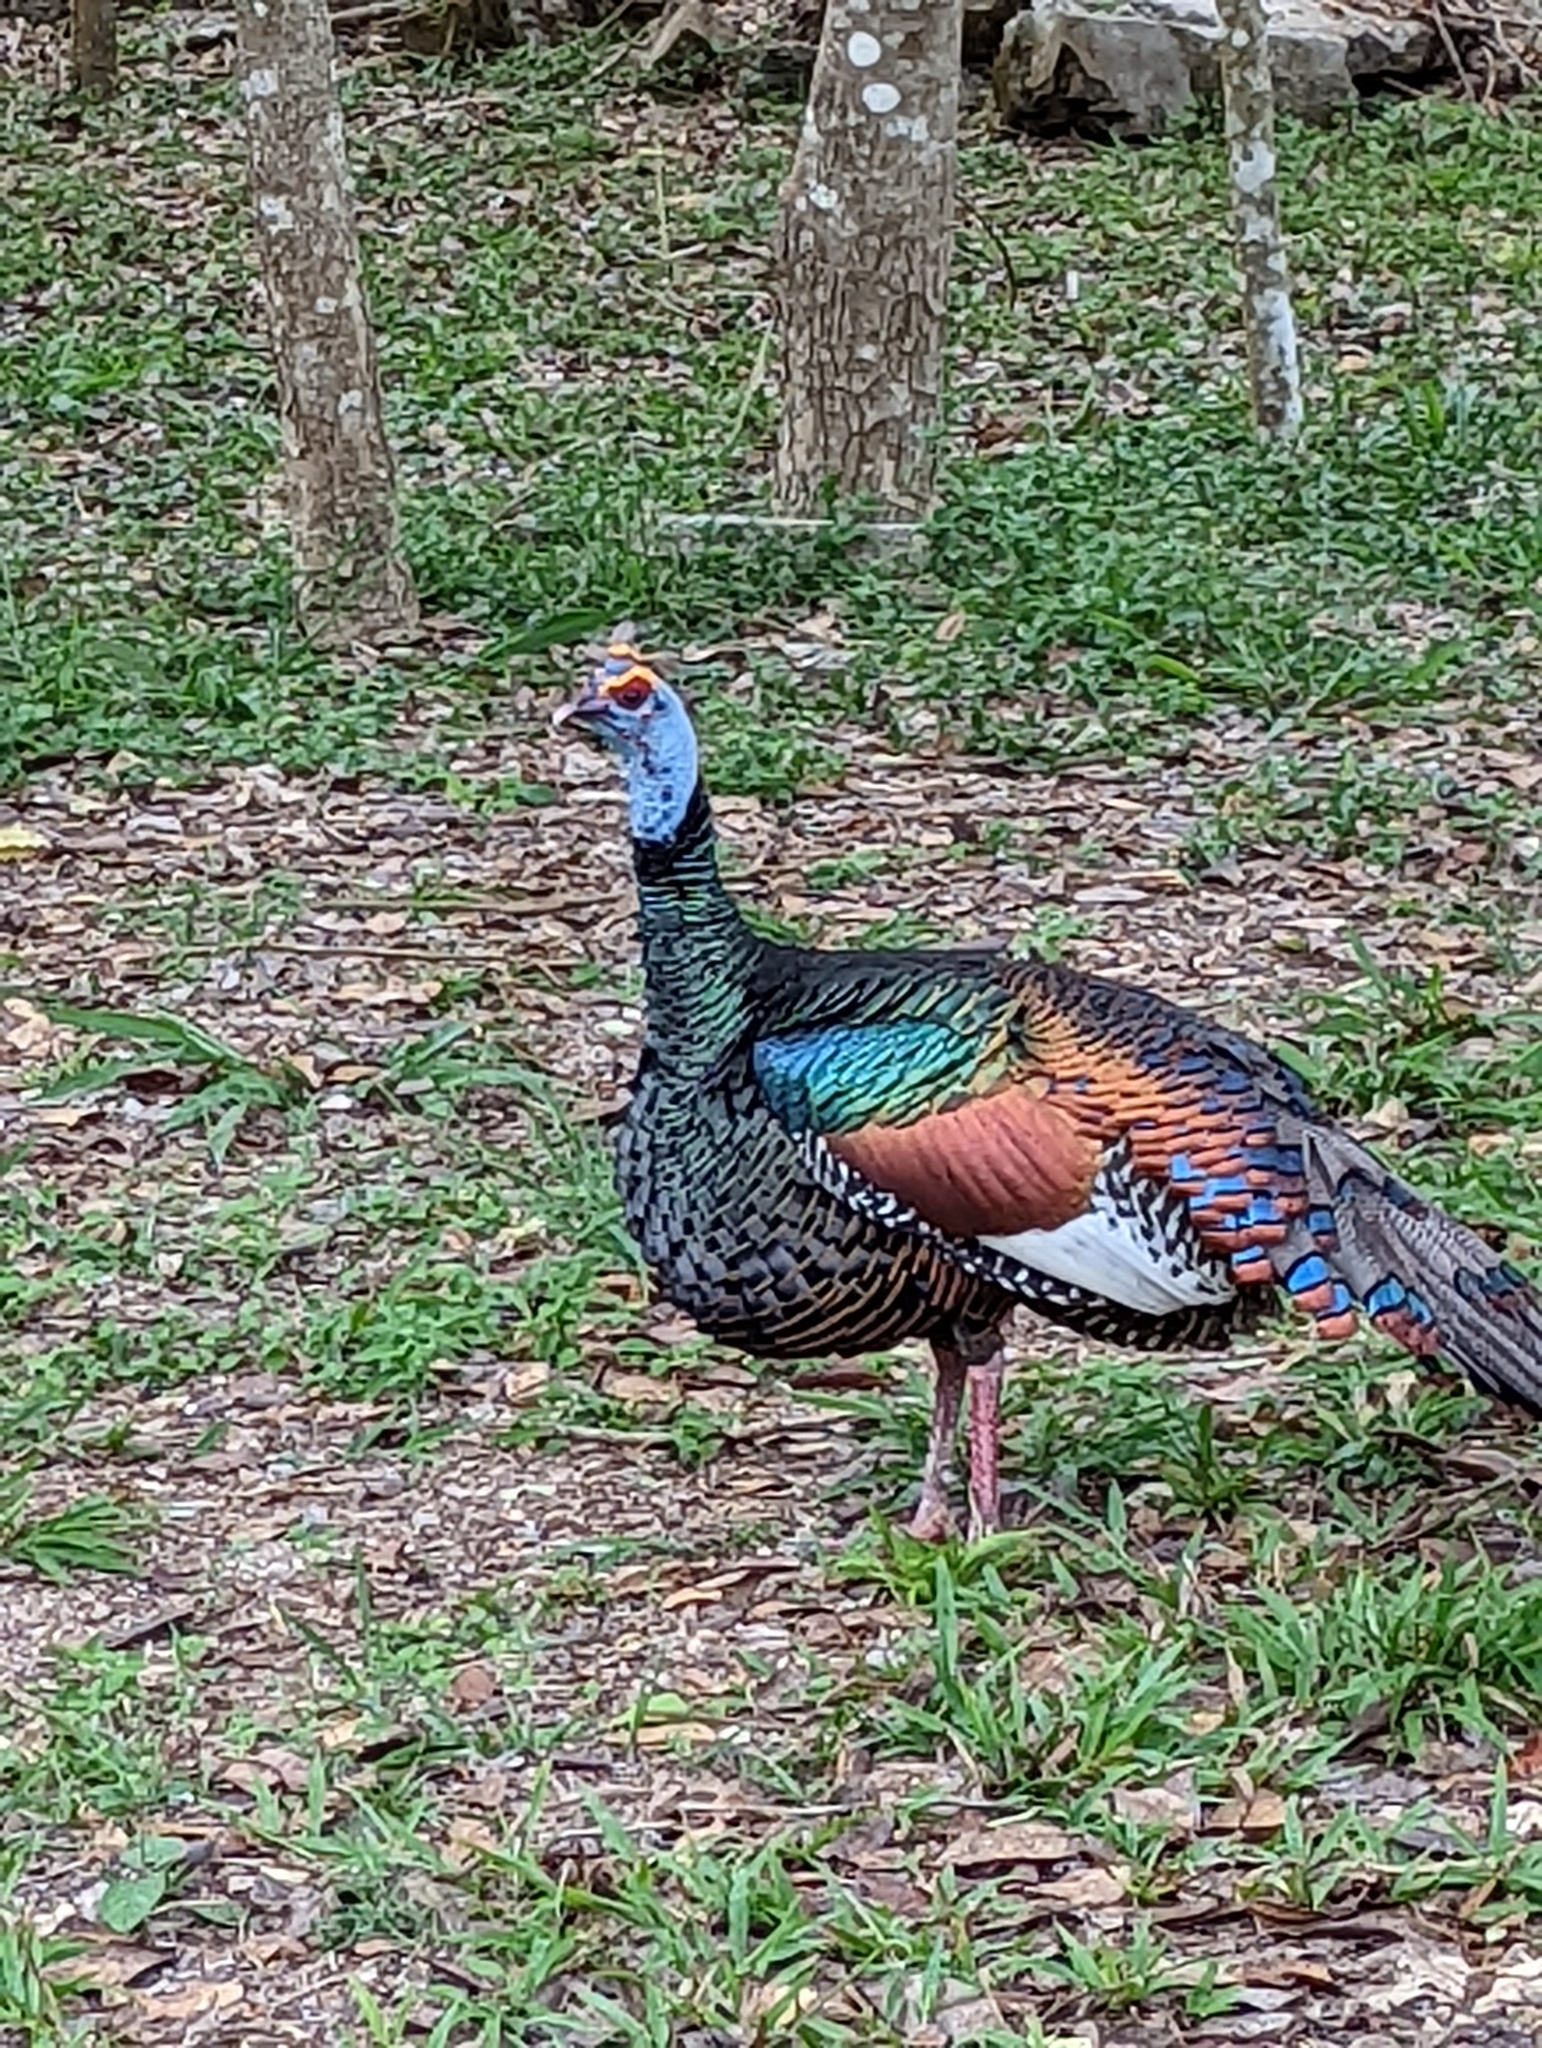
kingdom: Animalia
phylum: Chordata
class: Aves
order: Galliformes
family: Phasianidae
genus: Meleagris
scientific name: Meleagris ocellata
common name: Ocellated turkey
